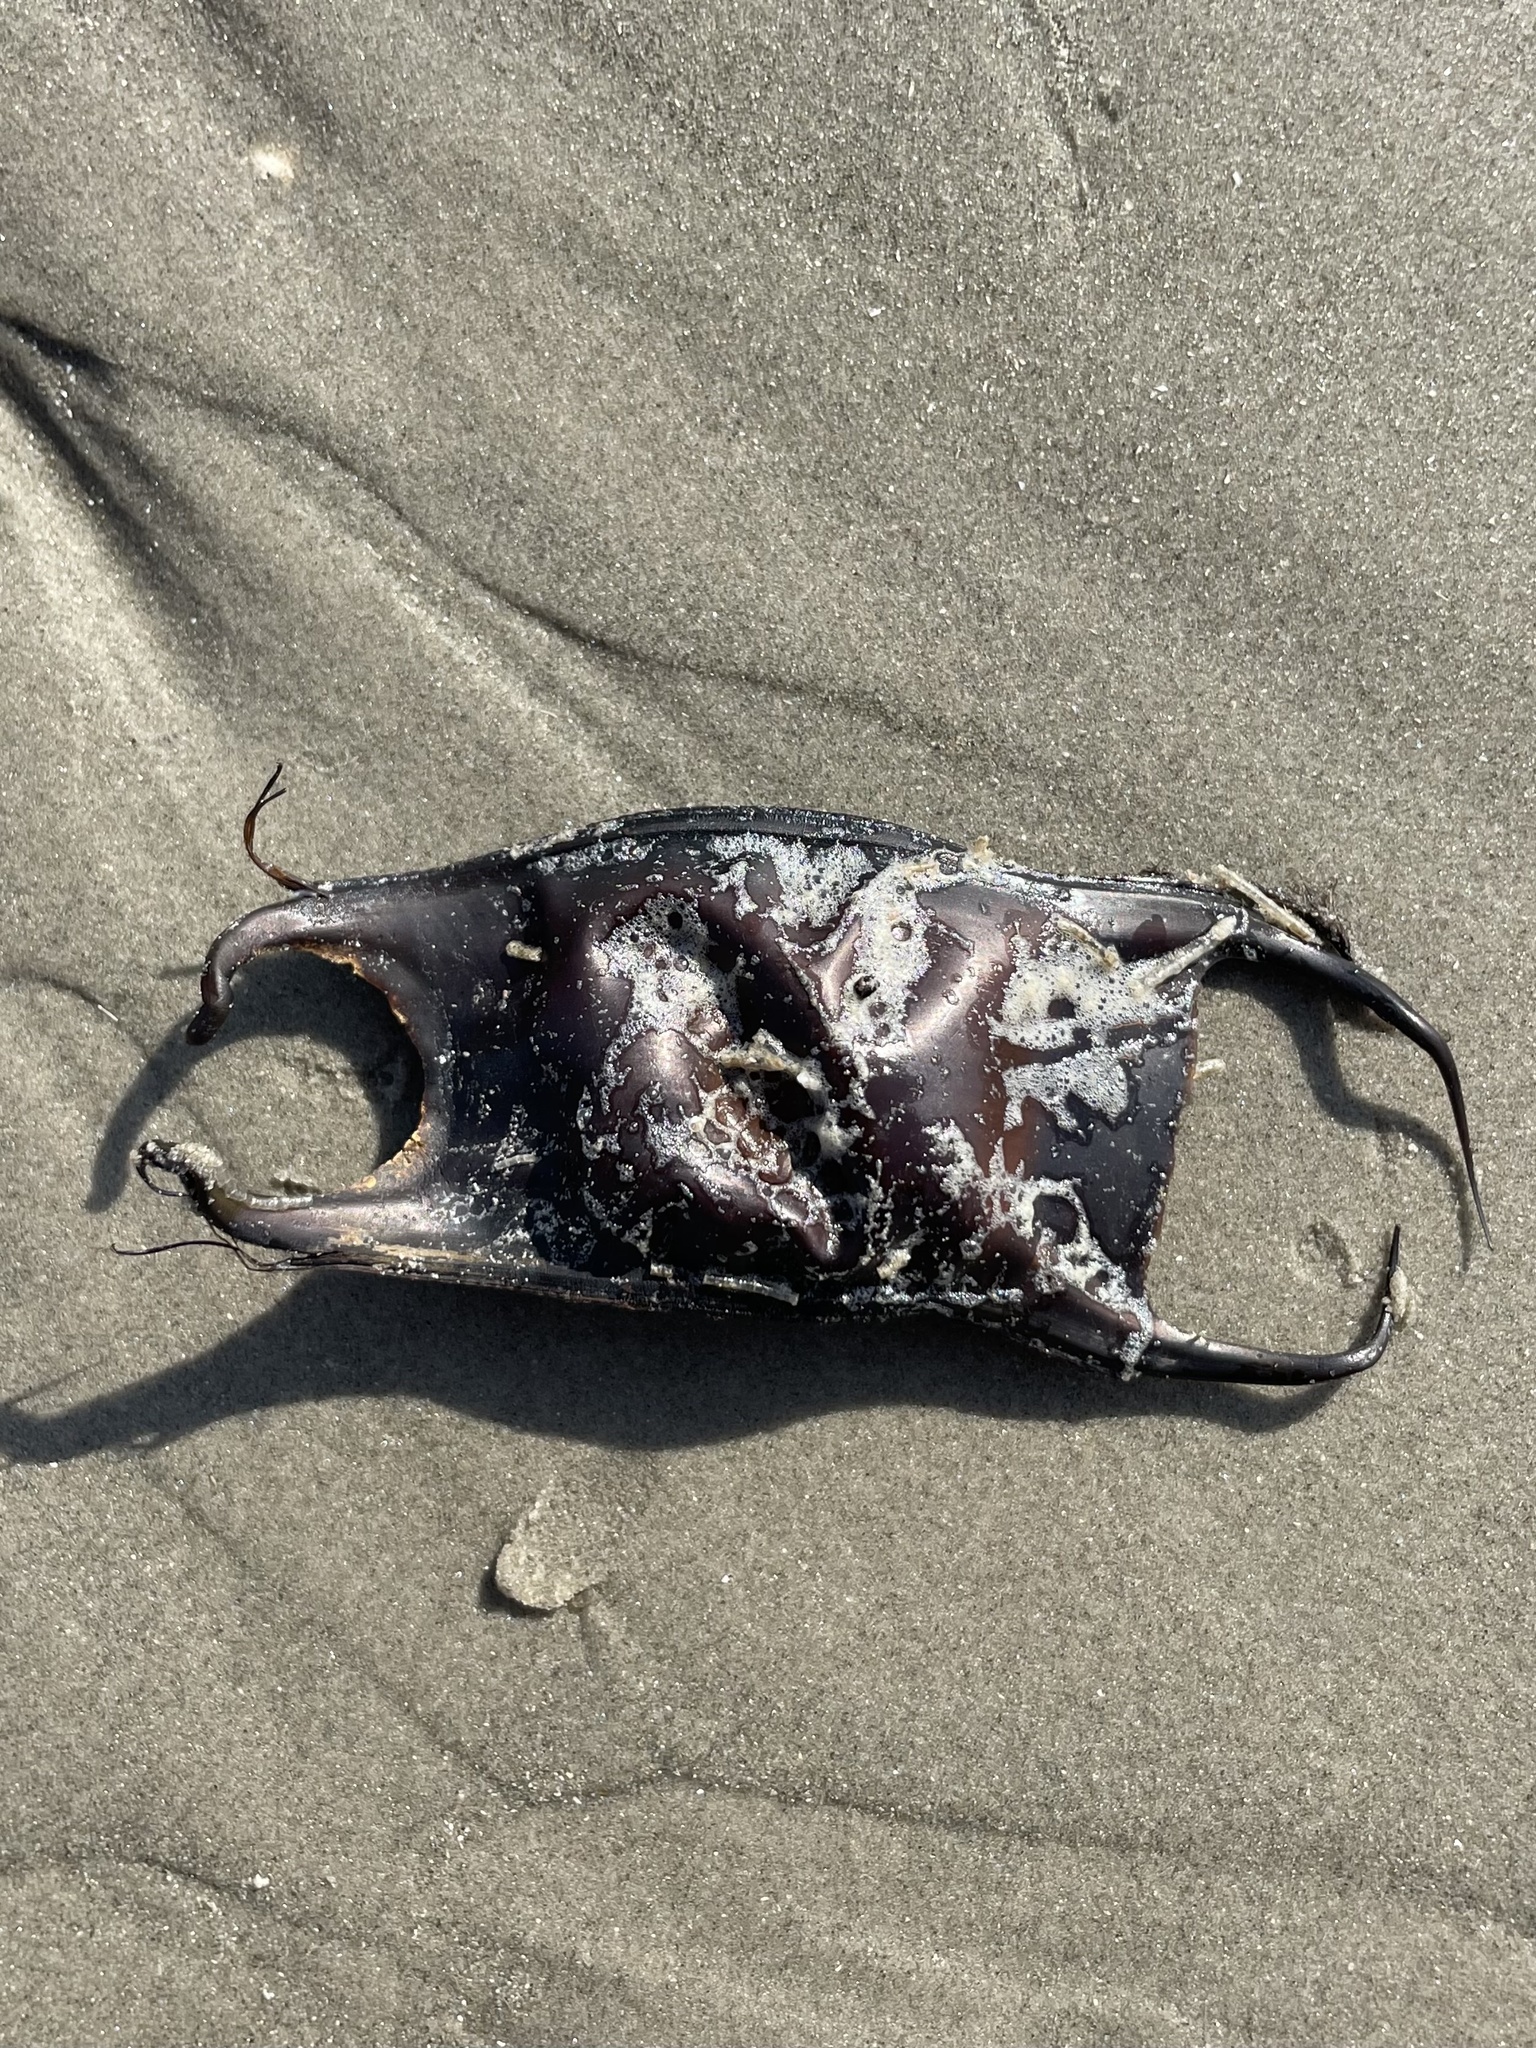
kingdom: Animalia
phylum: Chordata
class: Elasmobranchii
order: Rajiformes
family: Rajidae
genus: Raja
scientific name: Raja eglanteria
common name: Clearnose skate
